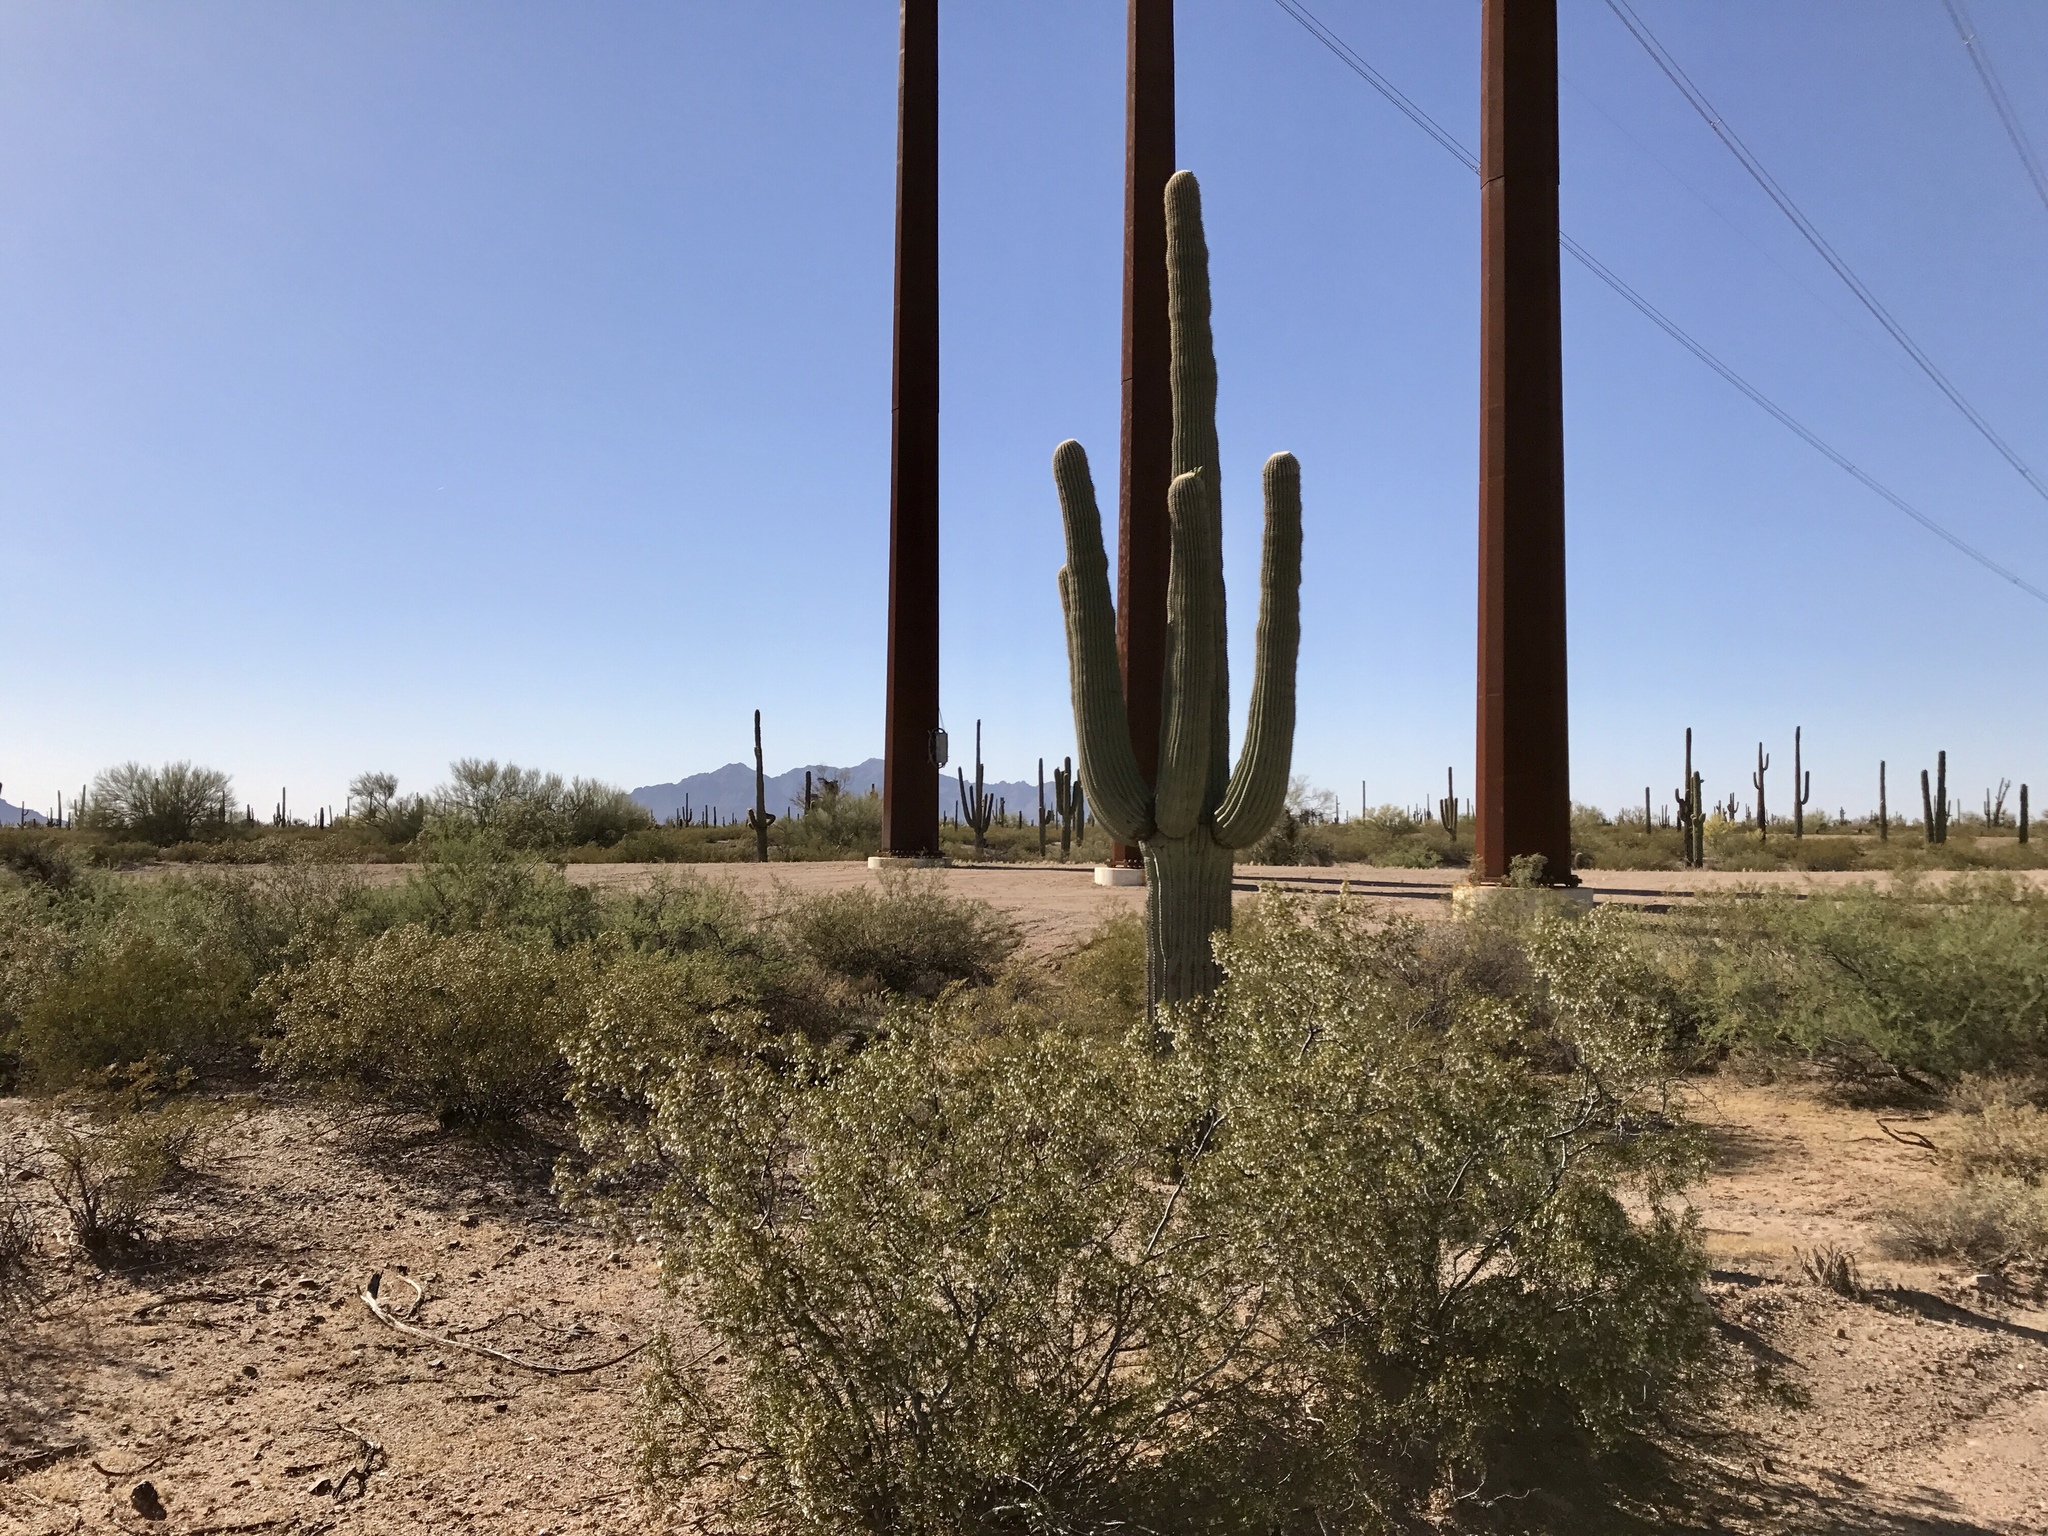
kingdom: Plantae
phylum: Tracheophyta
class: Magnoliopsida
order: Caryophyllales
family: Cactaceae
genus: Carnegiea
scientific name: Carnegiea gigantea
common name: Saguaro
